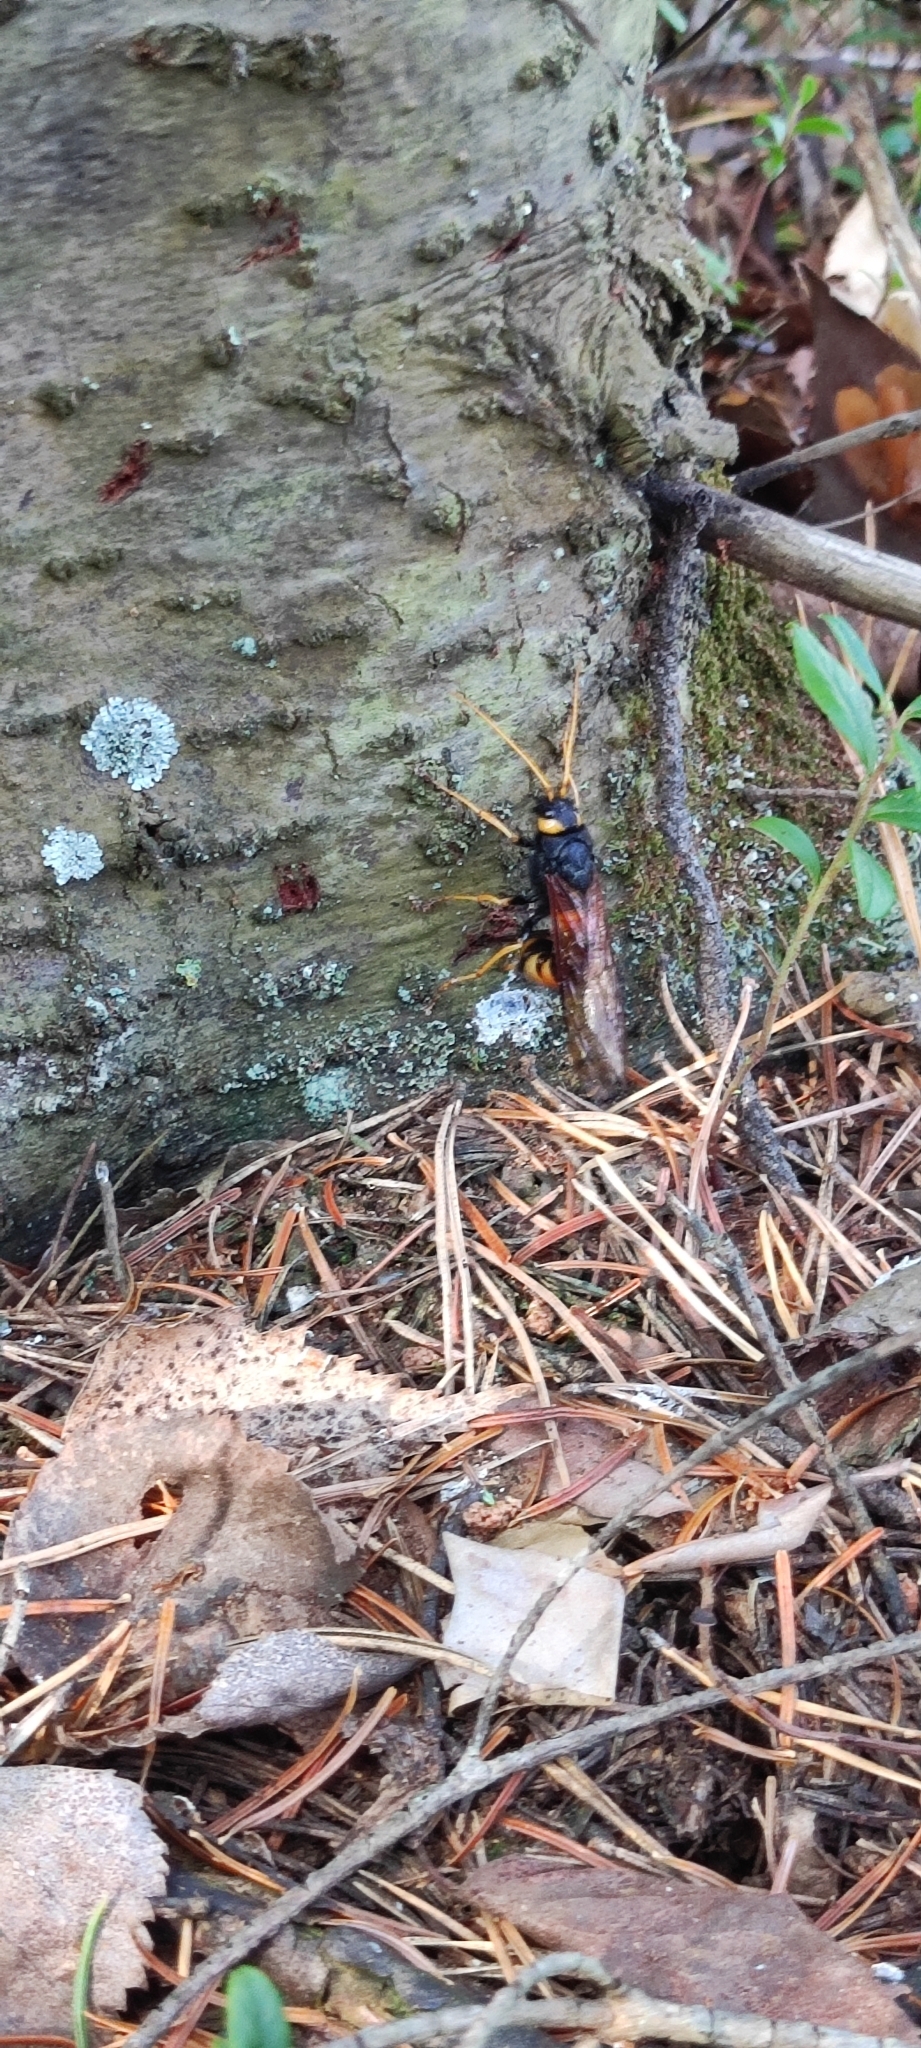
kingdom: Animalia
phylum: Arthropoda
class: Insecta
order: Hymenoptera
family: Siricidae
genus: Urocerus
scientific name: Urocerus gigas
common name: Giant woodwasp
